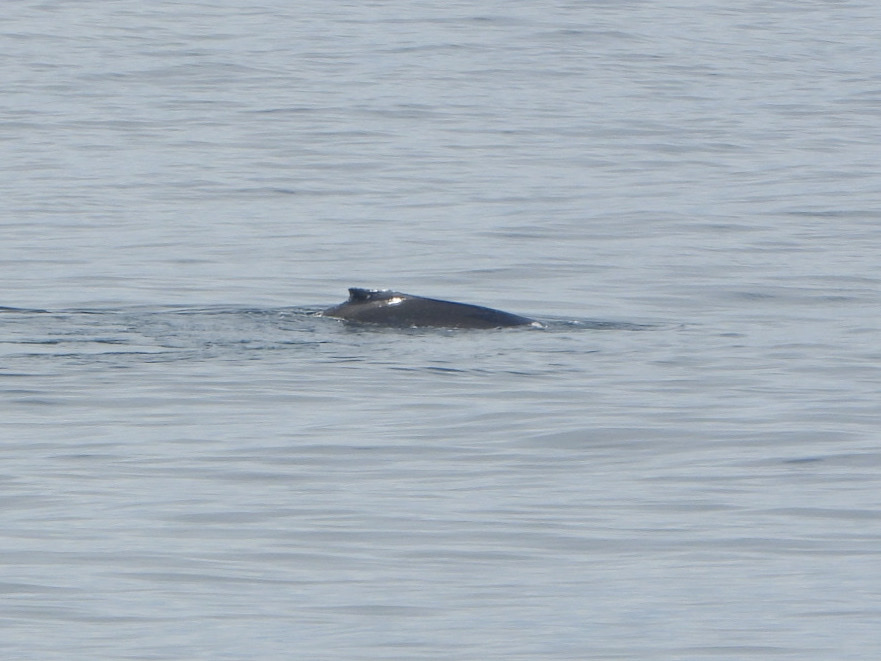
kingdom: Animalia
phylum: Chordata
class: Mammalia
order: Cetacea
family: Balaenopteridae
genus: Megaptera
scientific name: Megaptera novaeangliae
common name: Humpback whale
